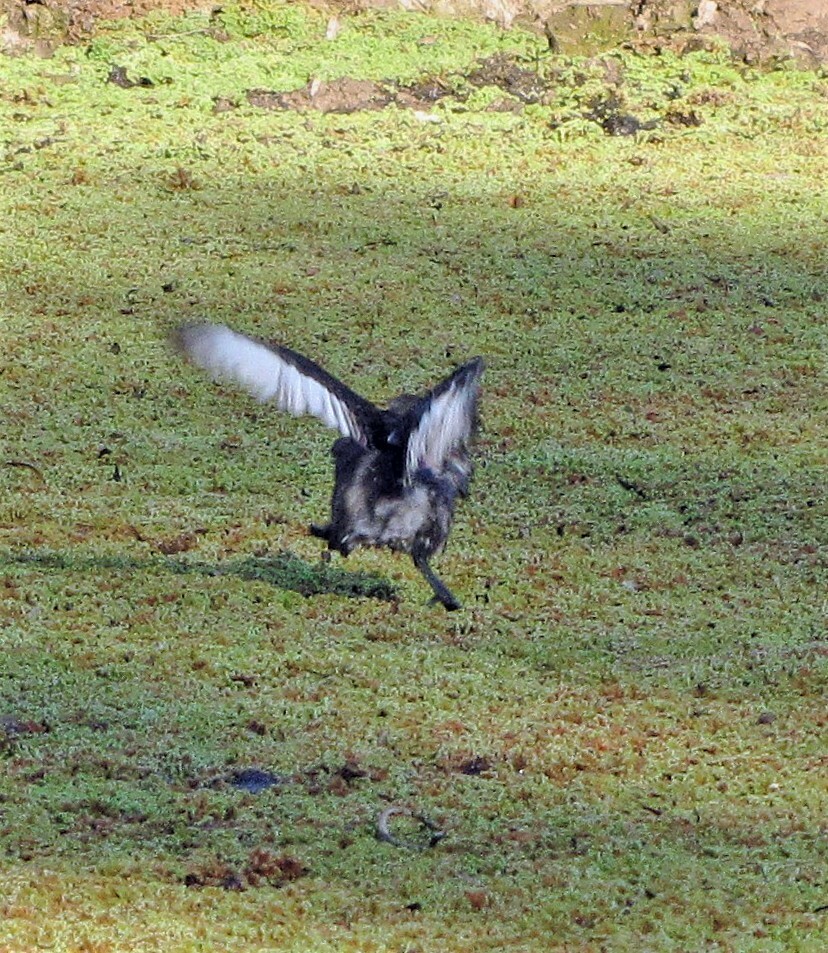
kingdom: Animalia
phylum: Chordata
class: Aves
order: Podicipediformes
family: Podicipedidae
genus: Tachybaptus
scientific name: Tachybaptus dominicus
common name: Least grebe
